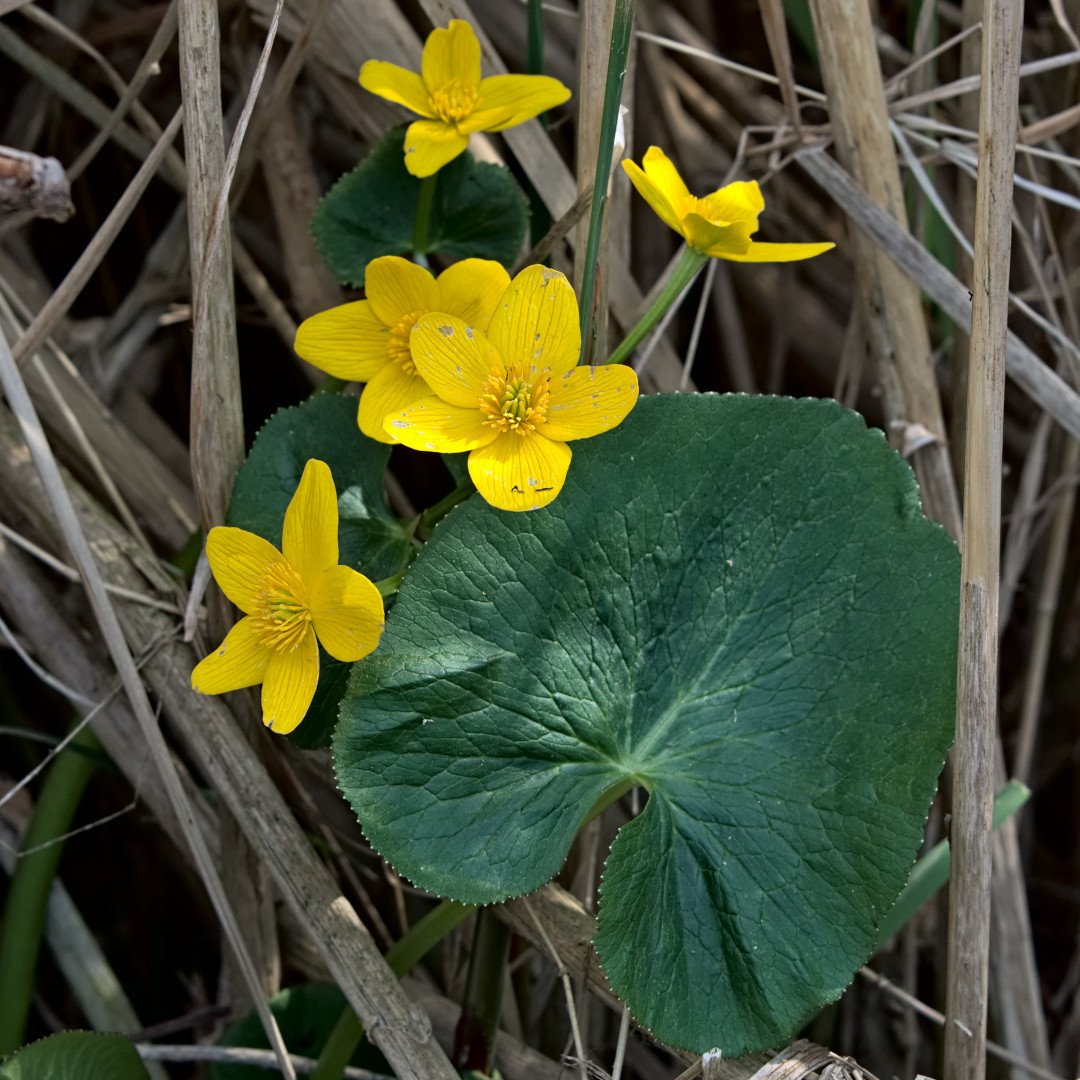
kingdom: Plantae
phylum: Tracheophyta
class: Magnoliopsida
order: Ranunculales
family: Ranunculaceae
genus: Caltha
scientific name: Caltha palustris
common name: Marsh marigold
